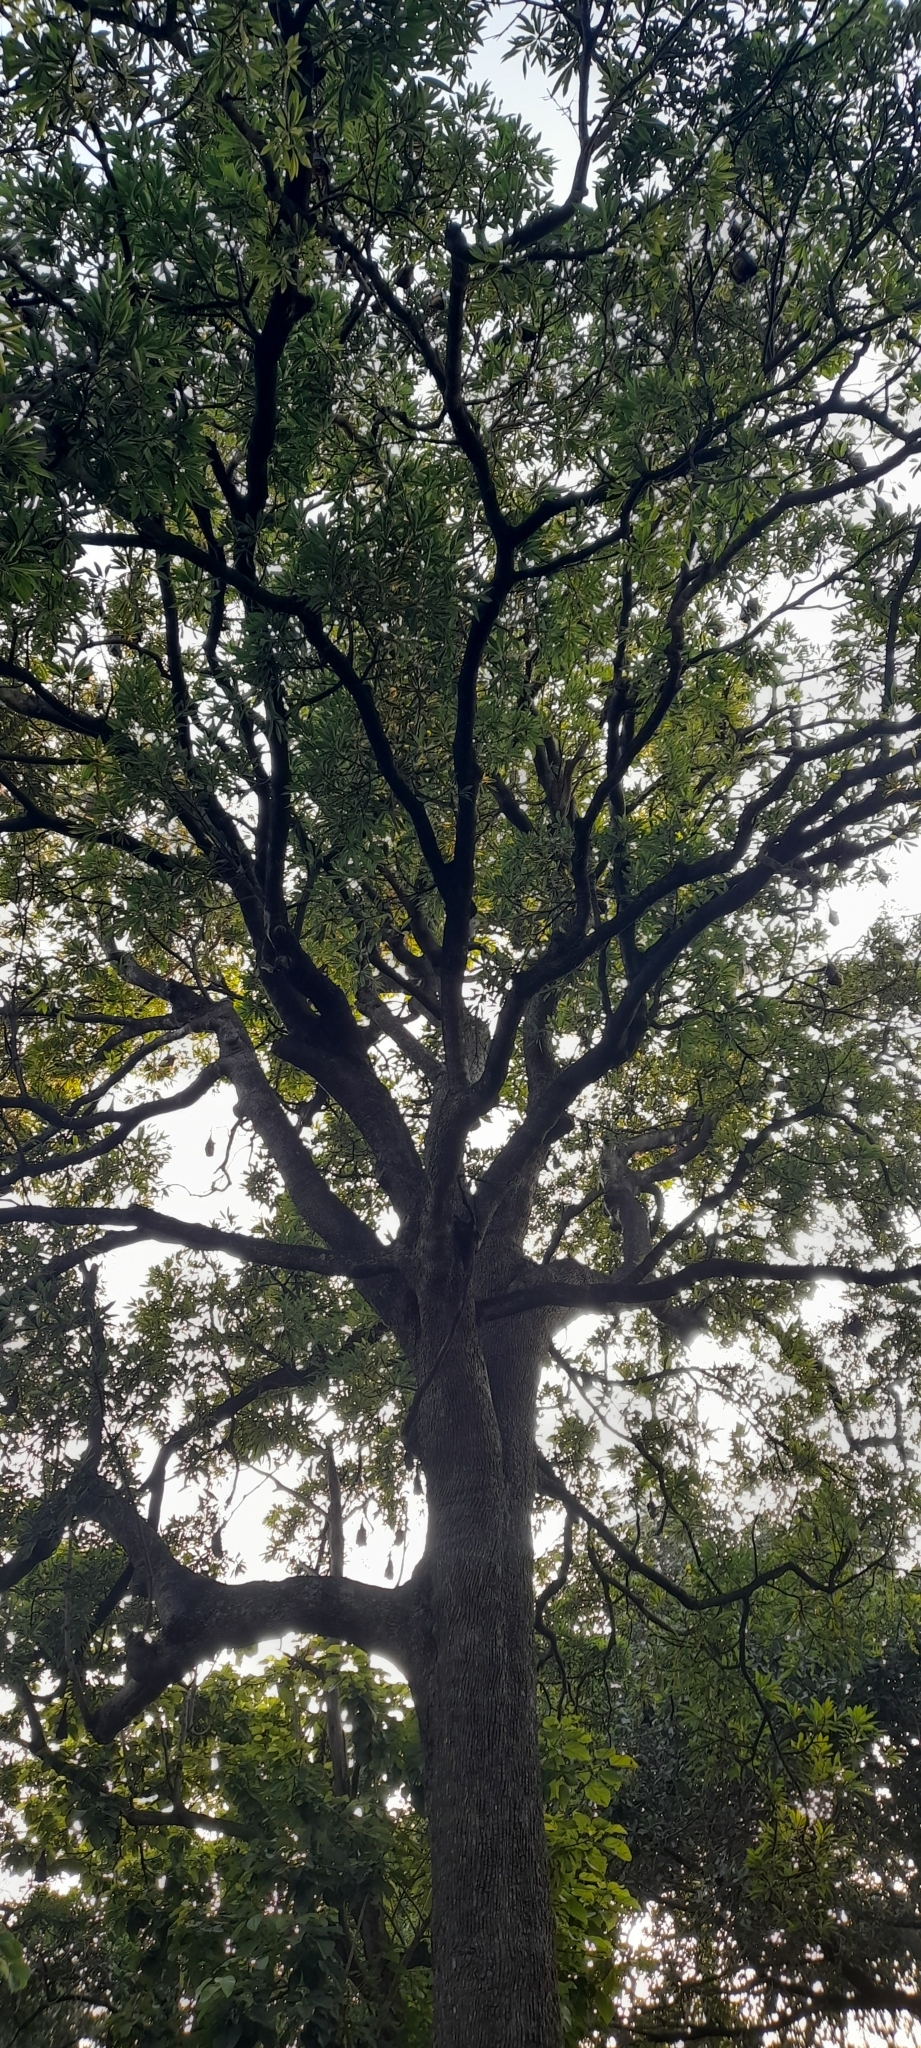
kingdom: Plantae
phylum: Tracheophyta
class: Magnoliopsida
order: Gentianales
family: Apocynaceae
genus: Alstonia
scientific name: Alstonia scholaris
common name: White cheesewood
